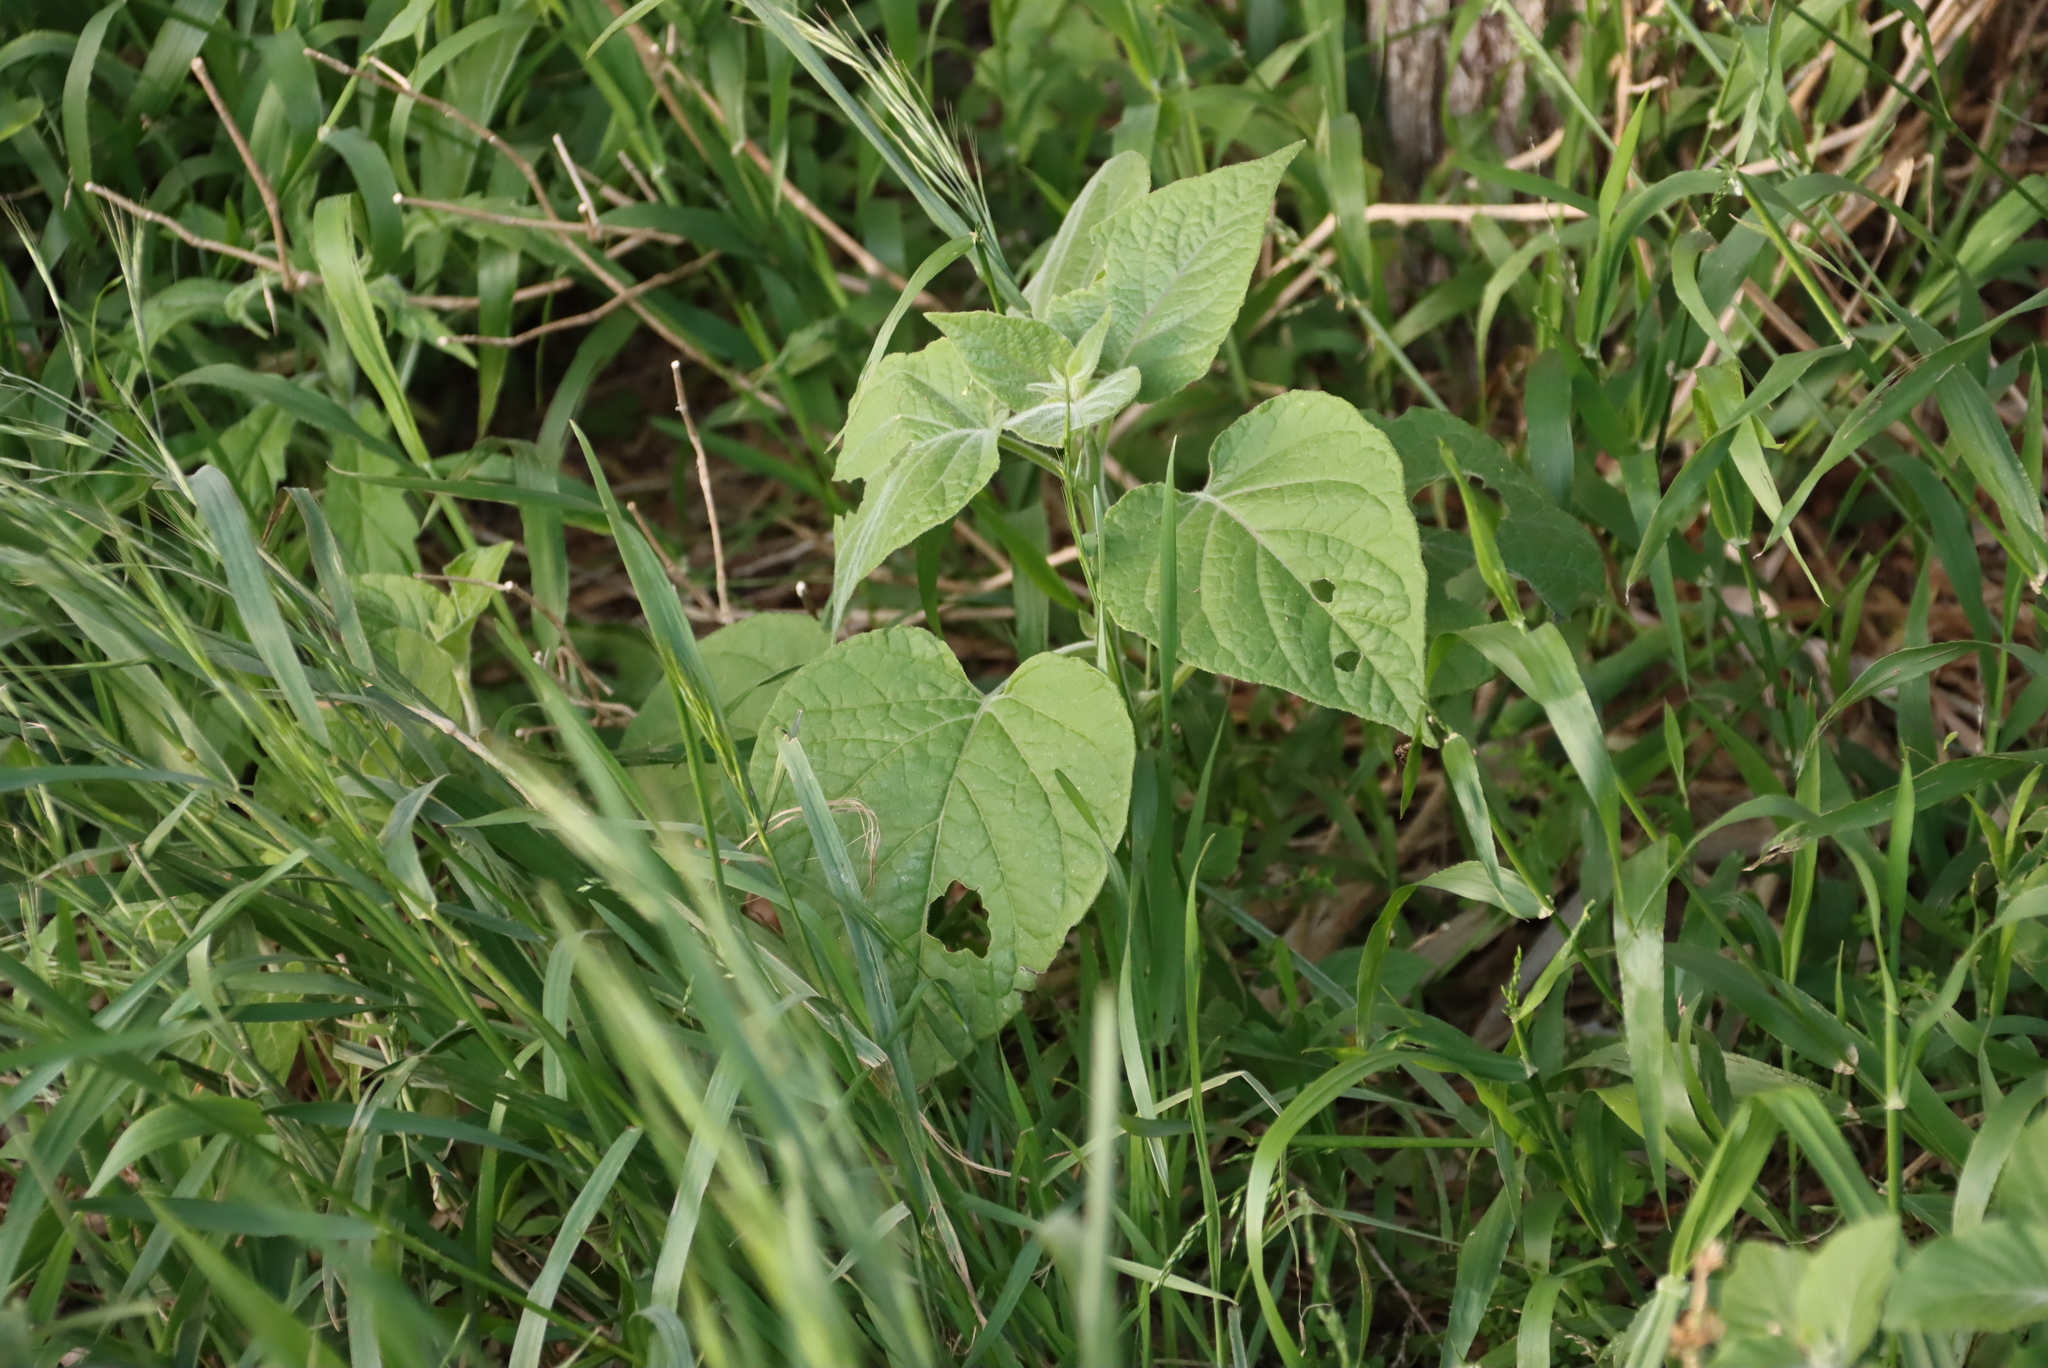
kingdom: Plantae
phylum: Tracheophyta
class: Magnoliopsida
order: Solanales
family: Solanaceae
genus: Physalis
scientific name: Physalis peruviana
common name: Cape-gooseberry
